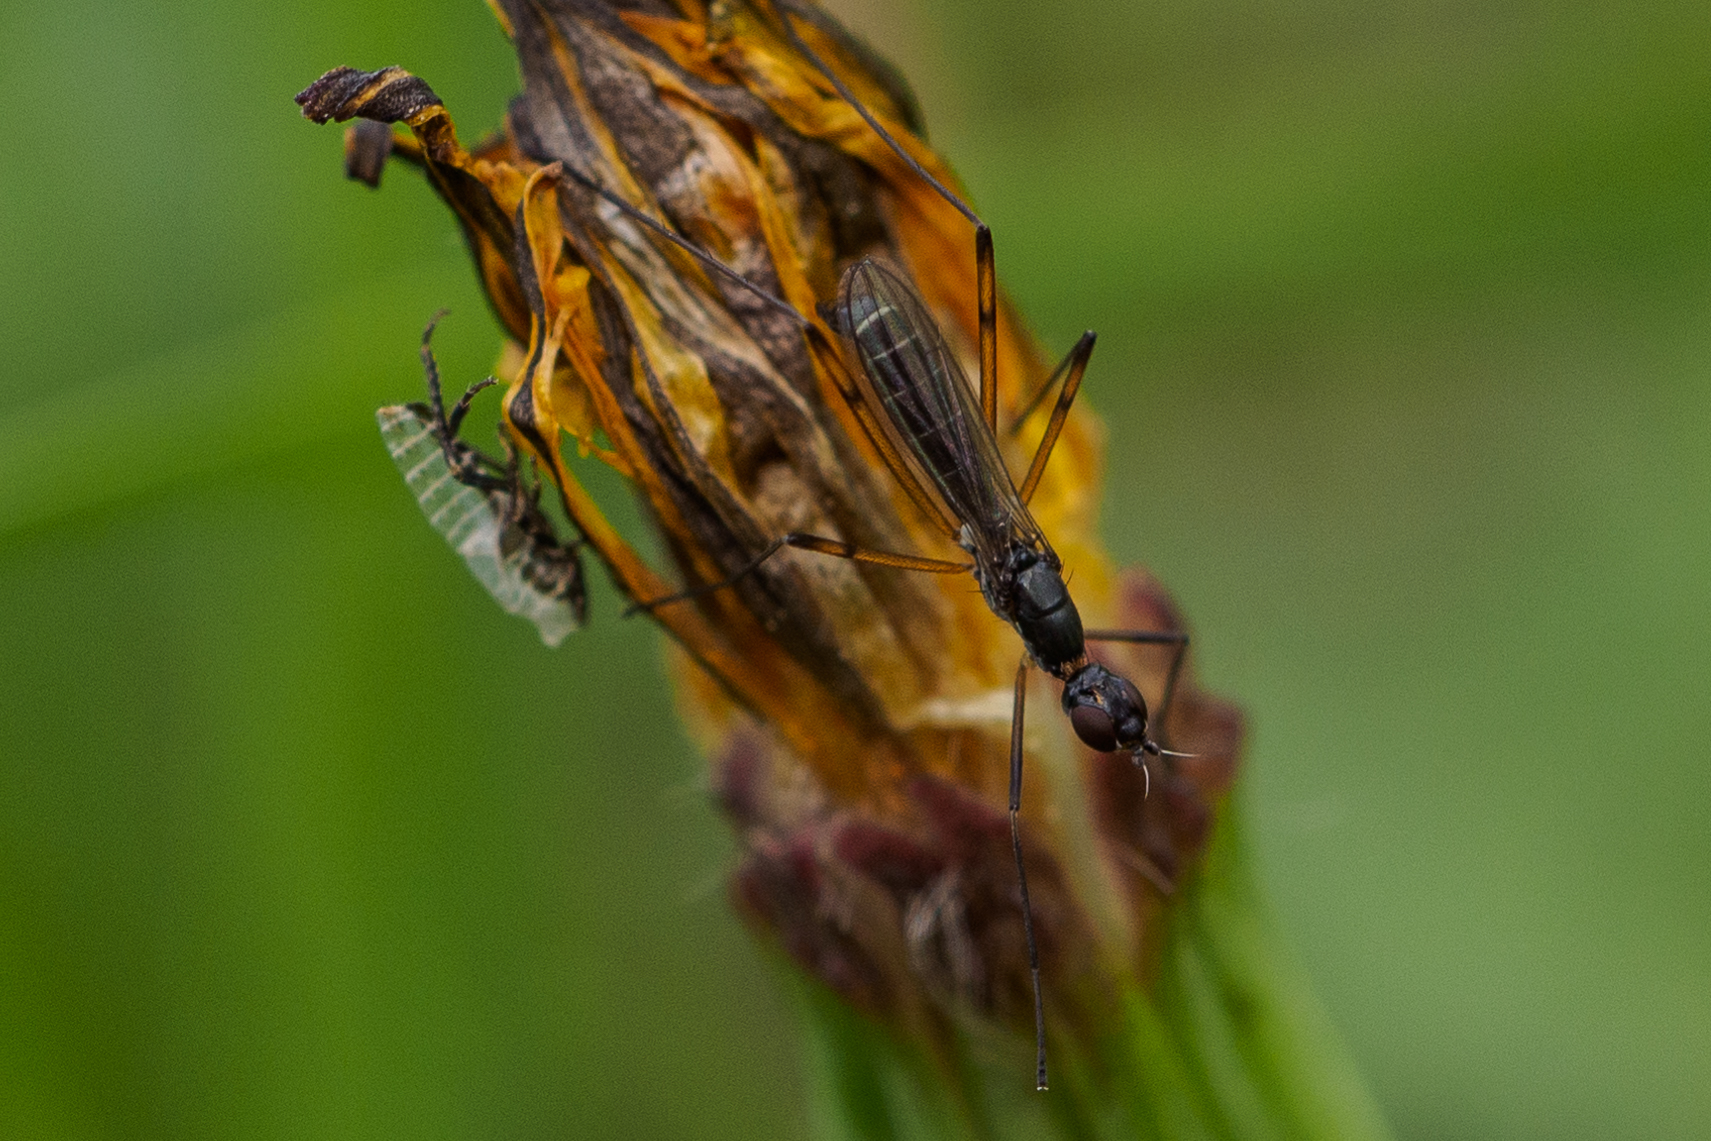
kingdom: Animalia
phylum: Arthropoda
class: Insecta
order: Diptera
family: Micropezidae
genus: Micropeza
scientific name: Micropeza corrigiolata
